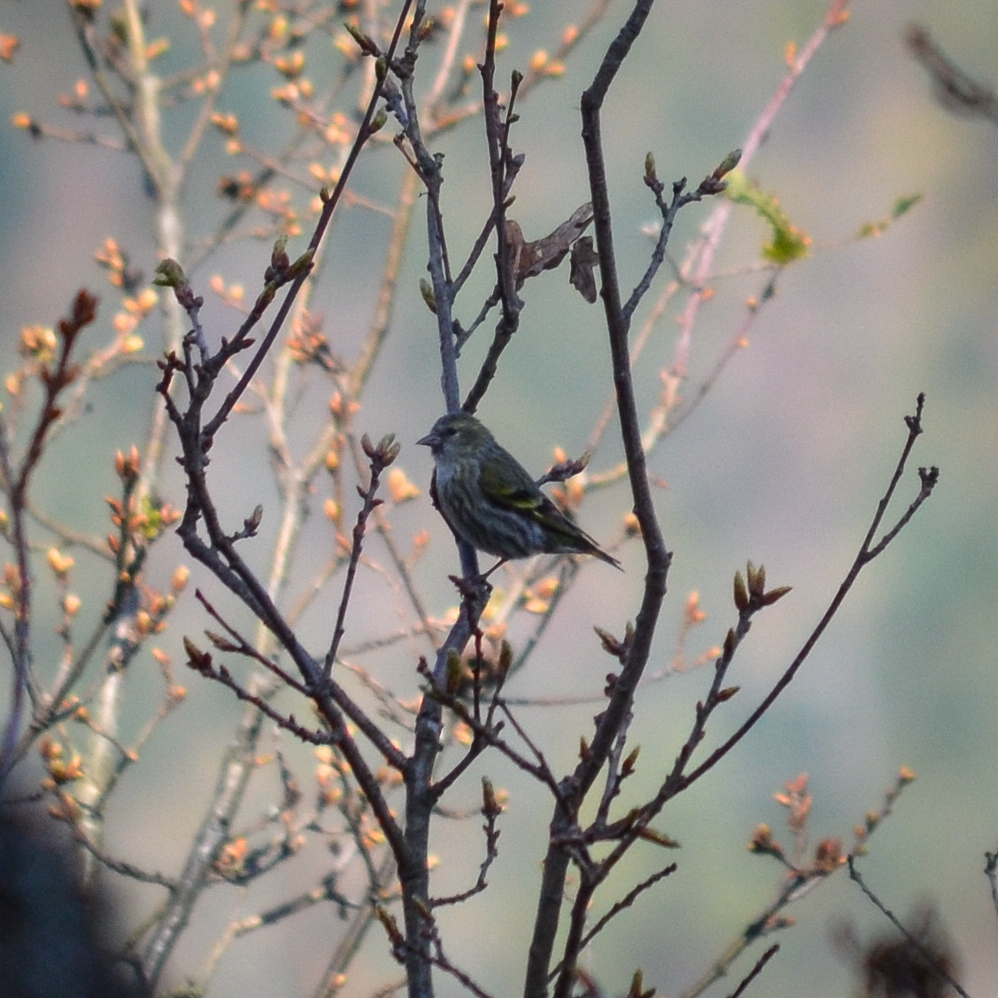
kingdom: Animalia
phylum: Chordata
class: Aves
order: Passeriformes
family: Fringillidae
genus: Spinus
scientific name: Spinus spinus
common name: Eurasian siskin
